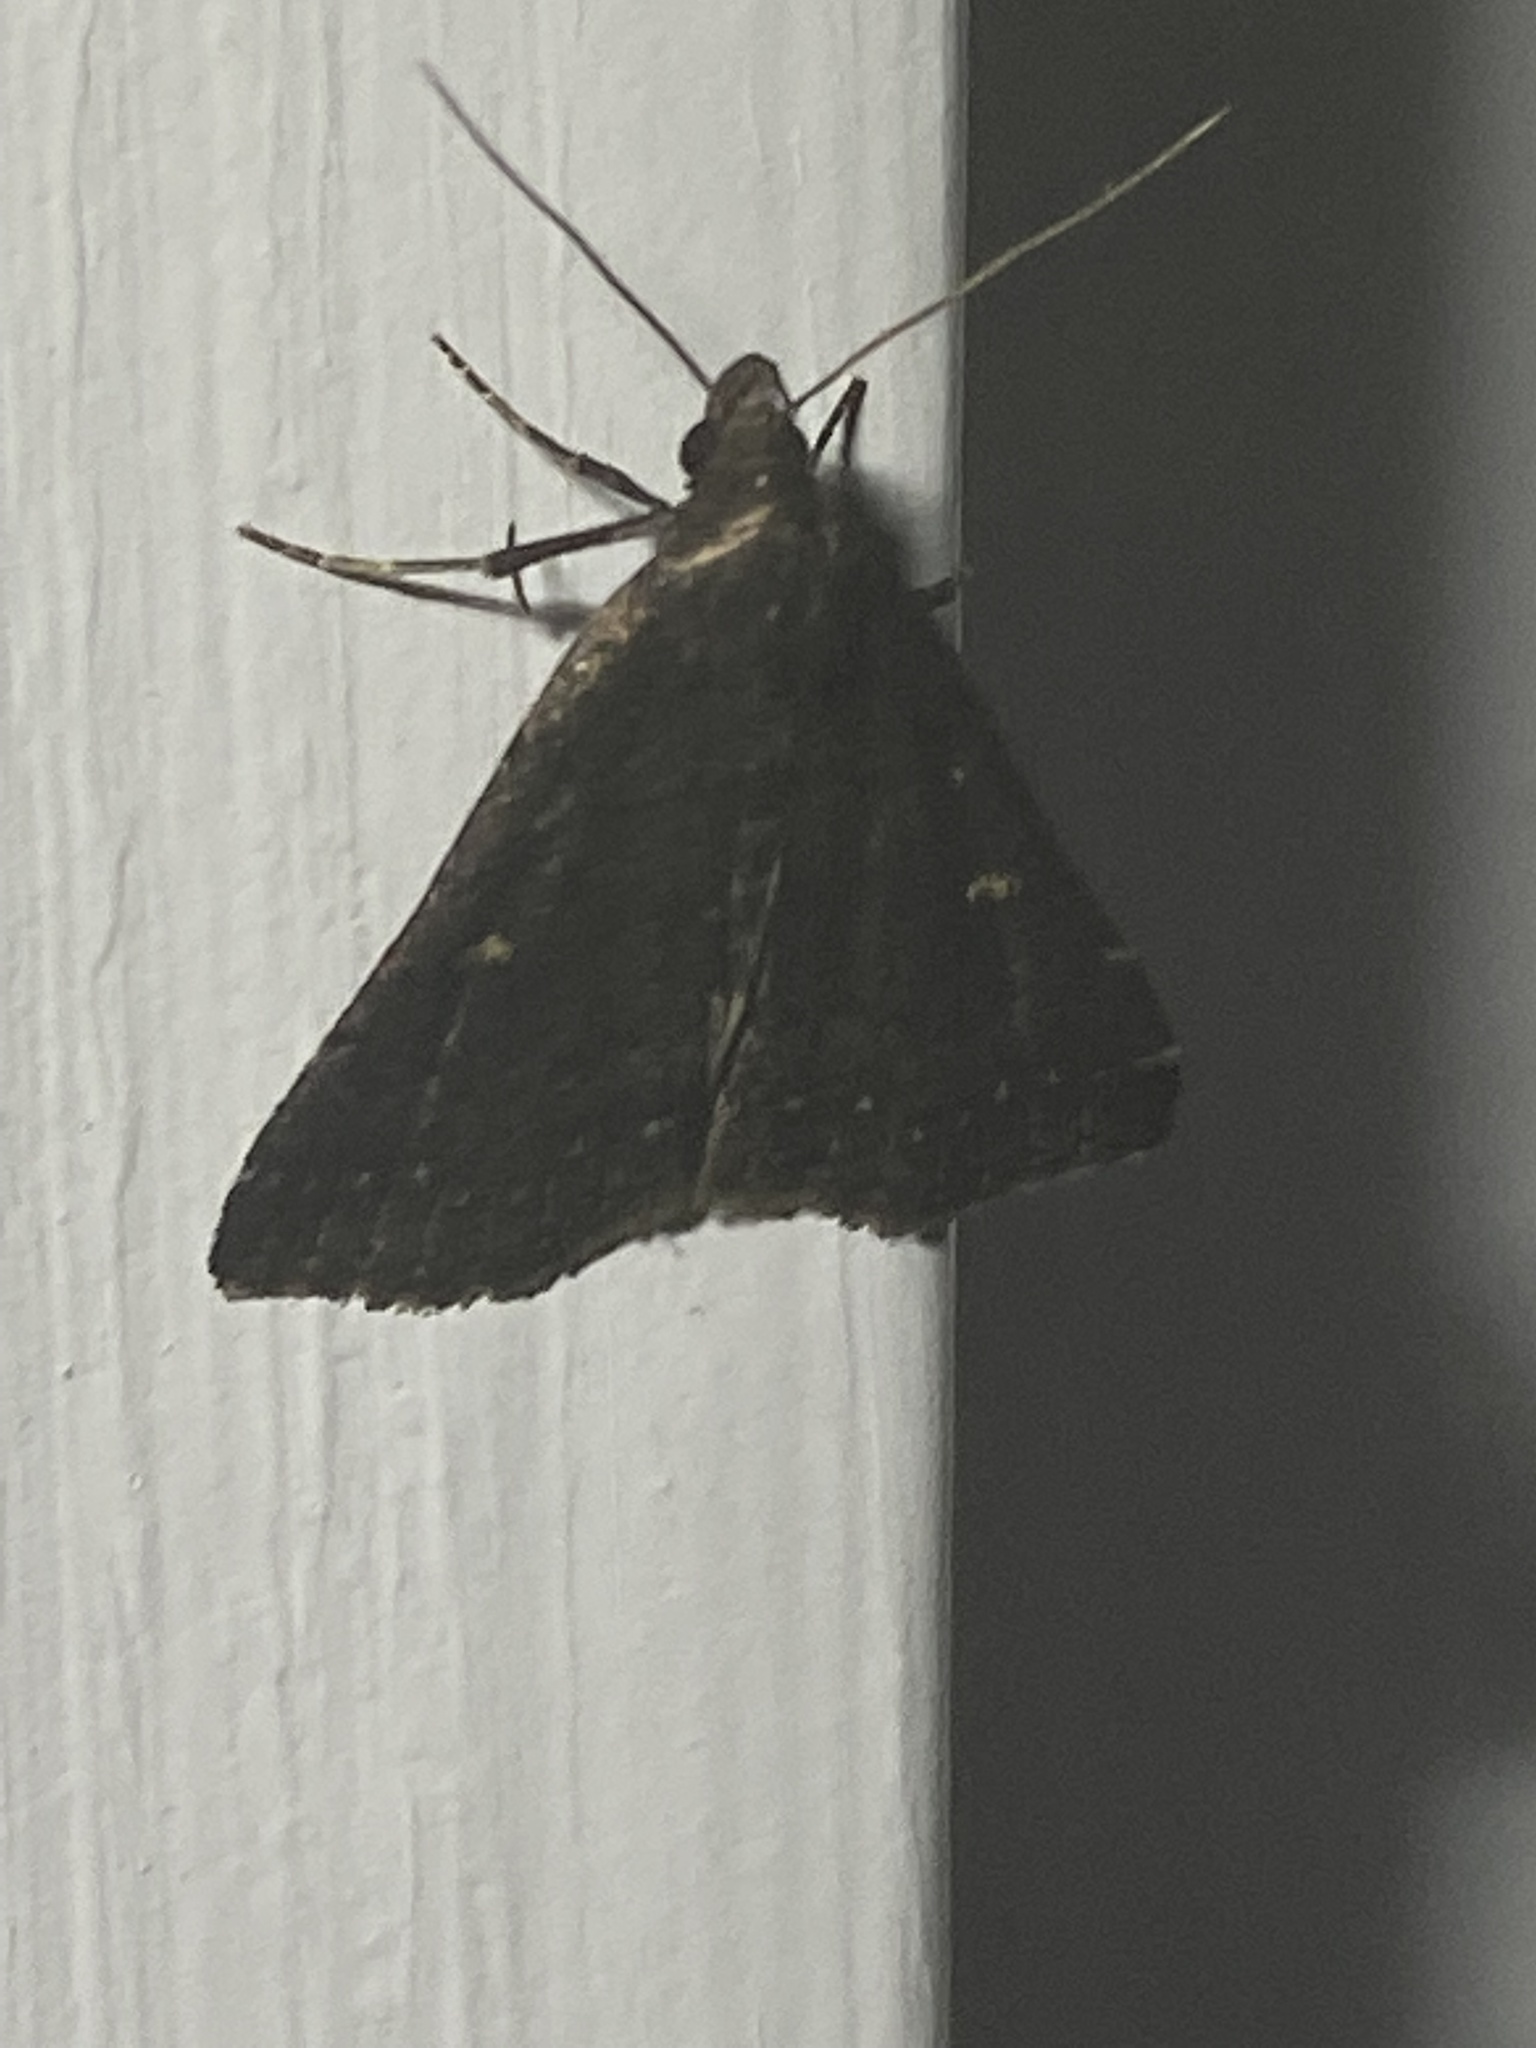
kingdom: Animalia
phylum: Arthropoda
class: Insecta
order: Lepidoptera
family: Erebidae
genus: Tetanolita
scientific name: Tetanolita mynesalis
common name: Smoky tetanolita moth
